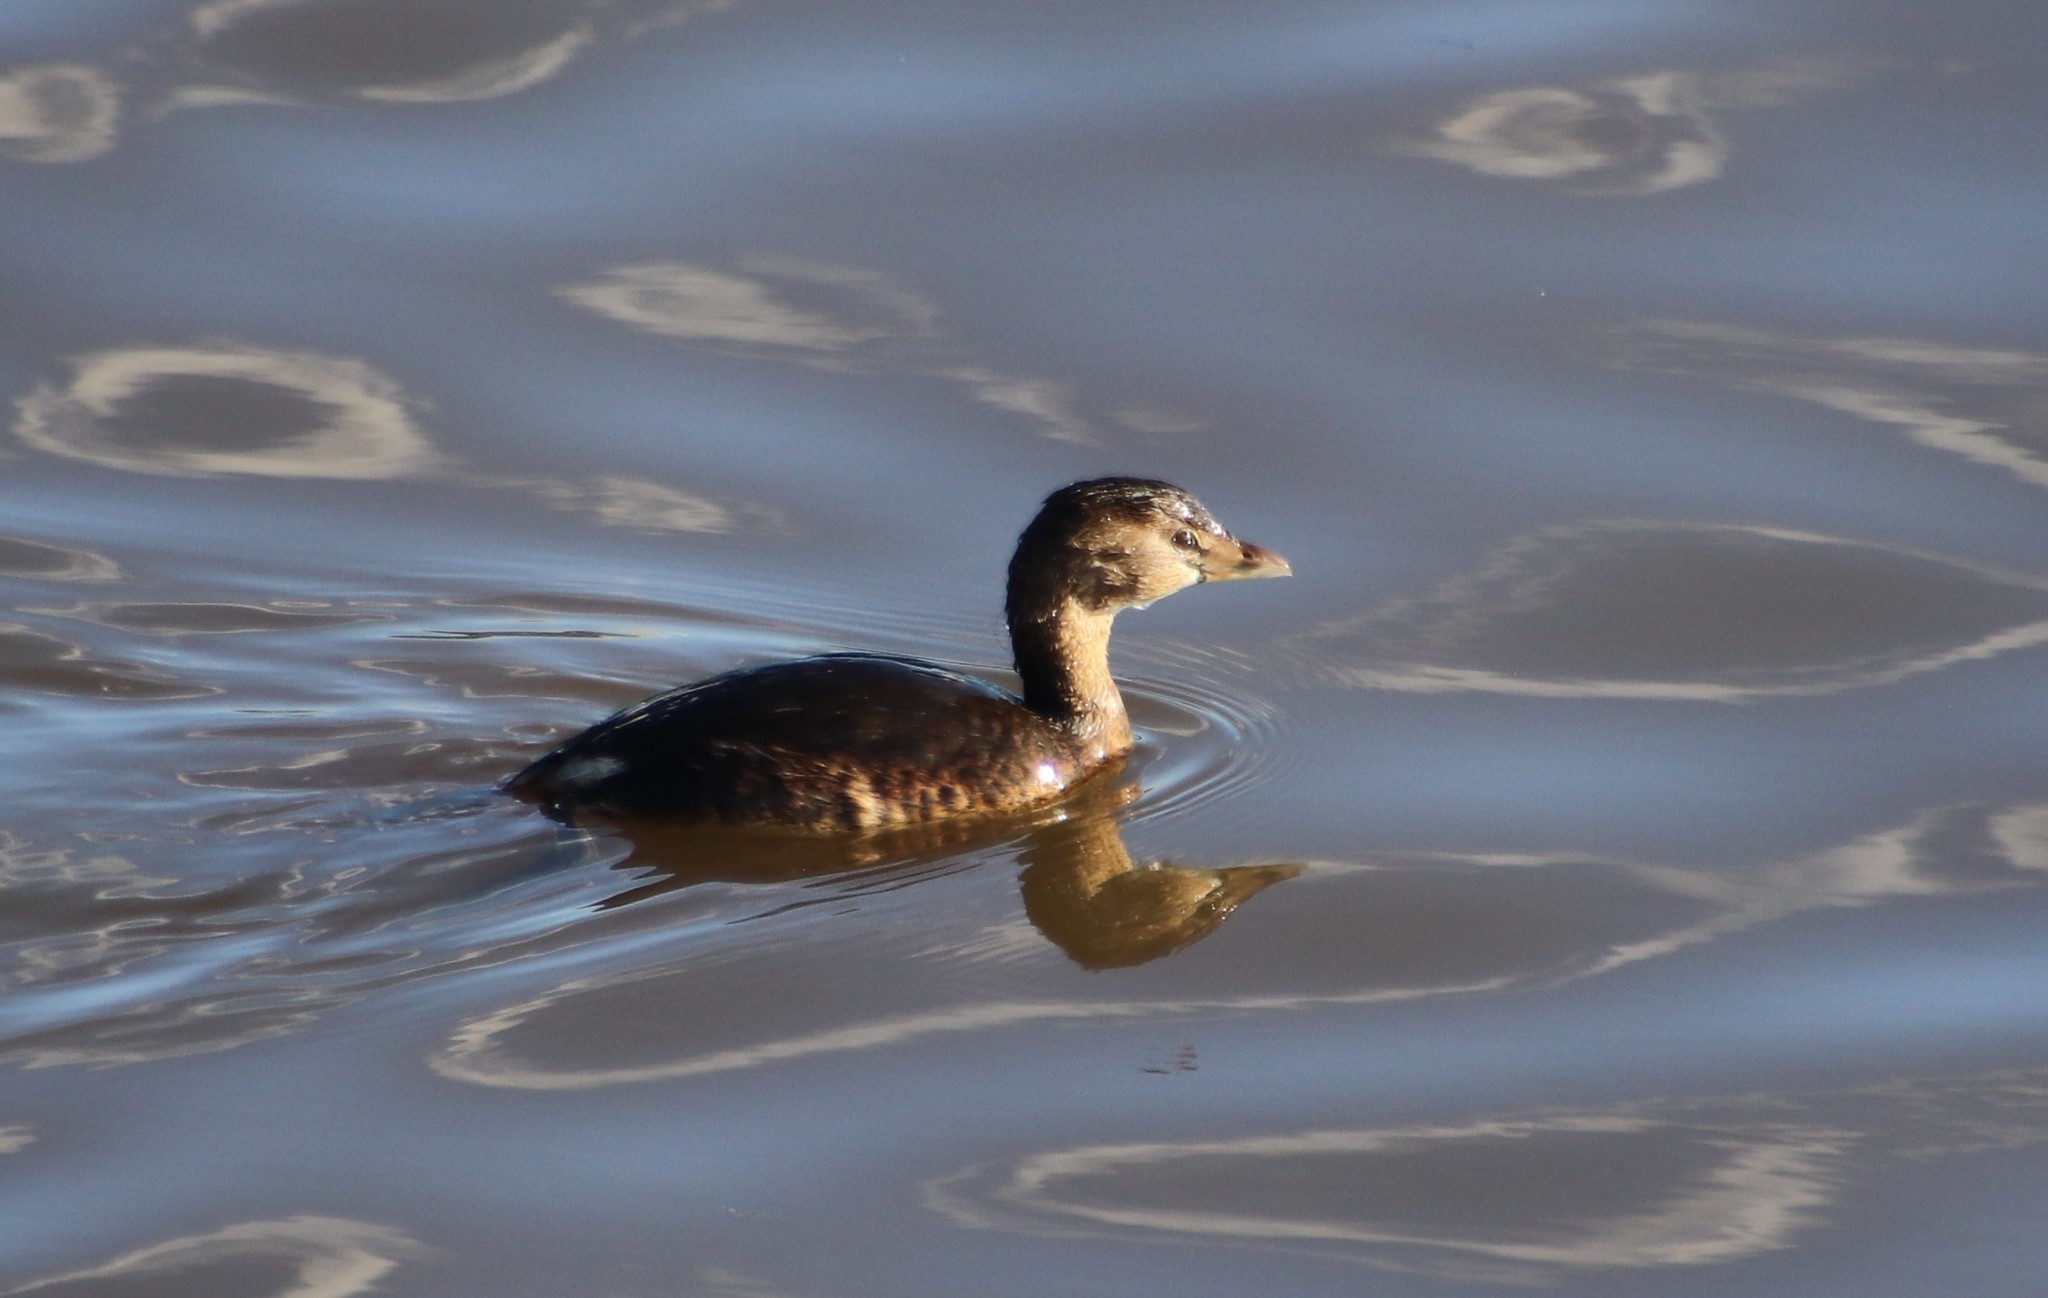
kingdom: Animalia
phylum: Chordata
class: Aves
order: Podicipediformes
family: Podicipedidae
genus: Podilymbus
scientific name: Podilymbus podiceps
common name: Pied-billed grebe
